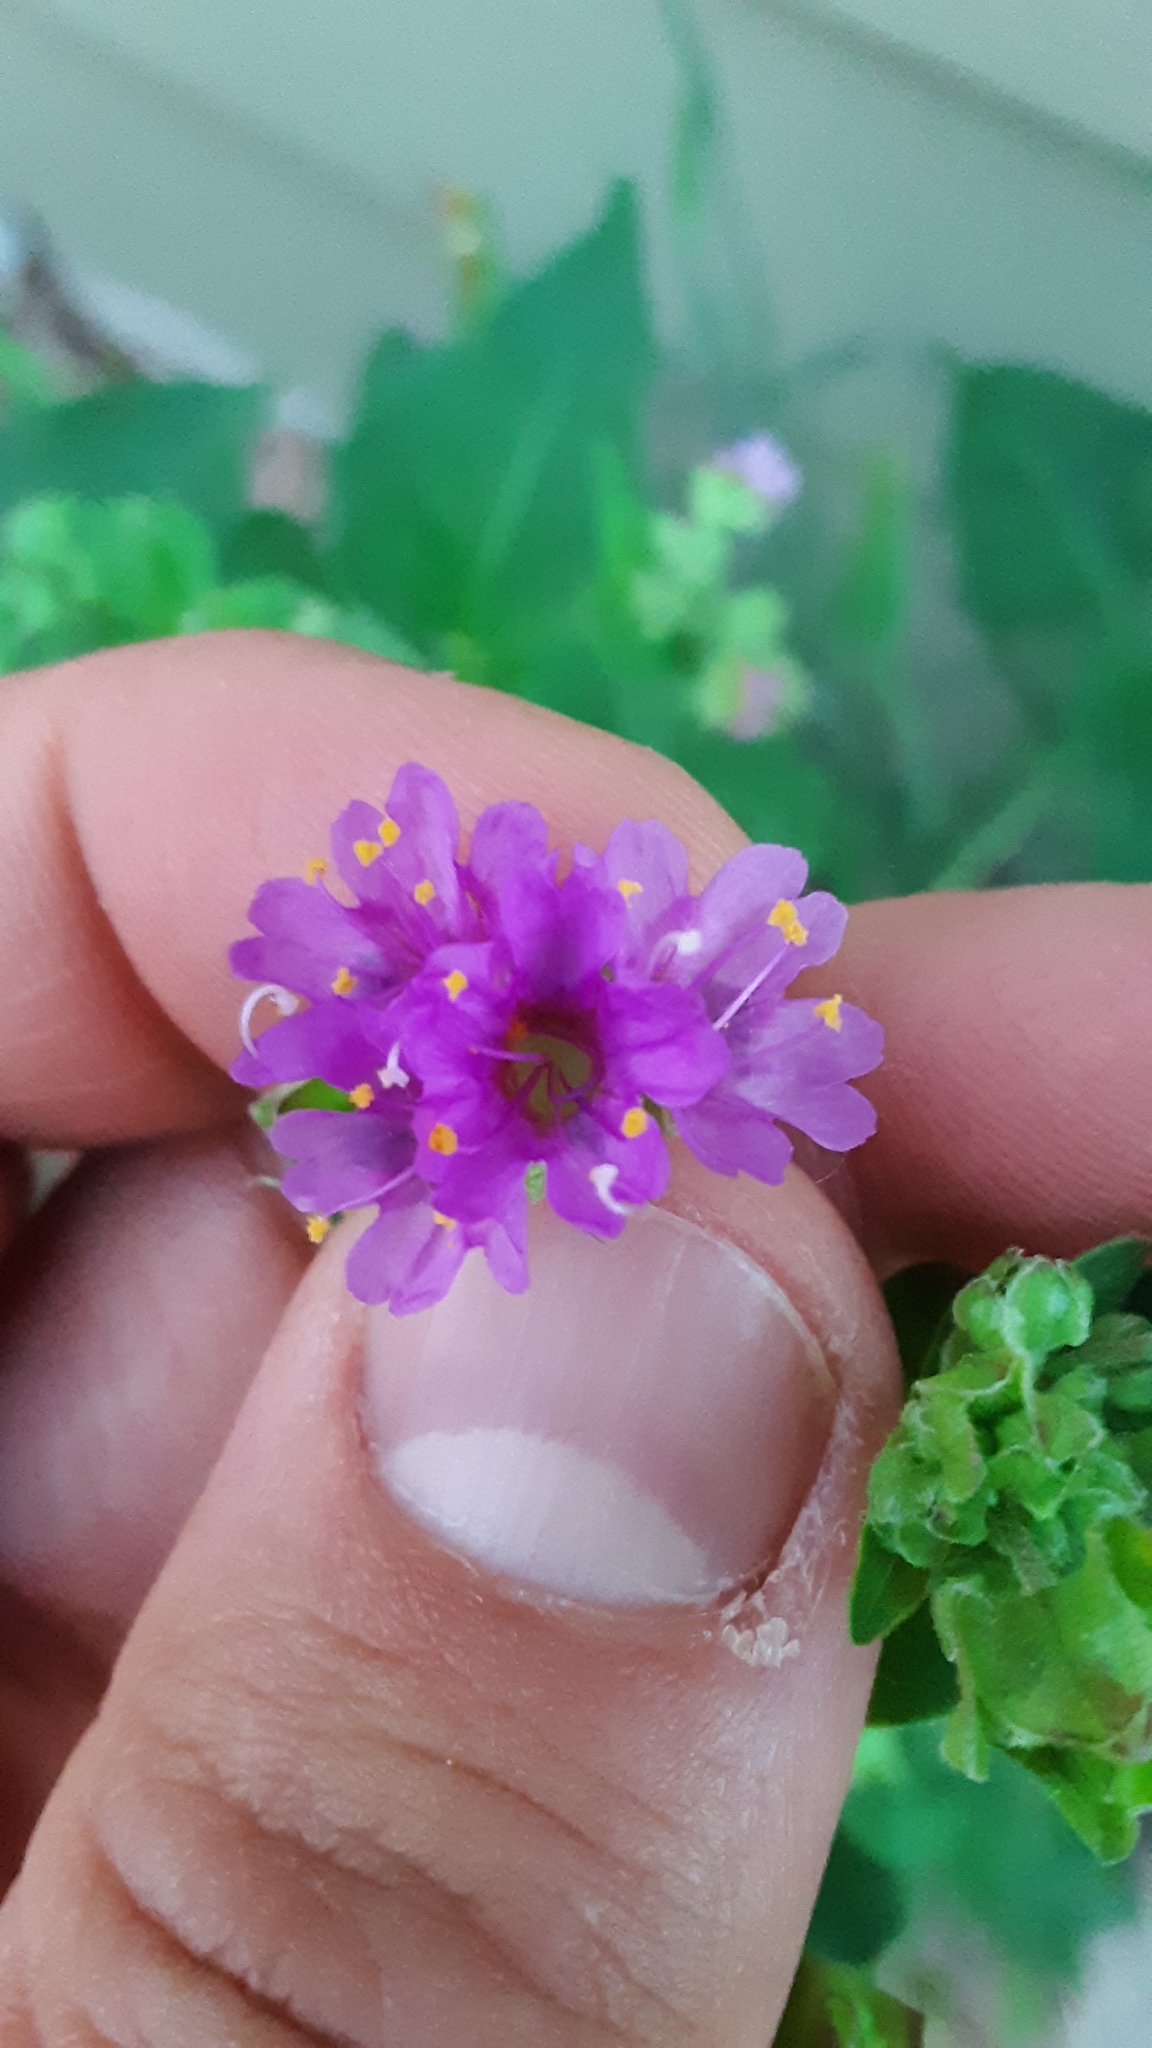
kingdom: Plantae
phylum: Tracheophyta
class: Magnoliopsida
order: Caryophyllales
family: Nyctaginaceae
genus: Mirabilis
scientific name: Mirabilis nyctaginea
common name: Umbrella wort
